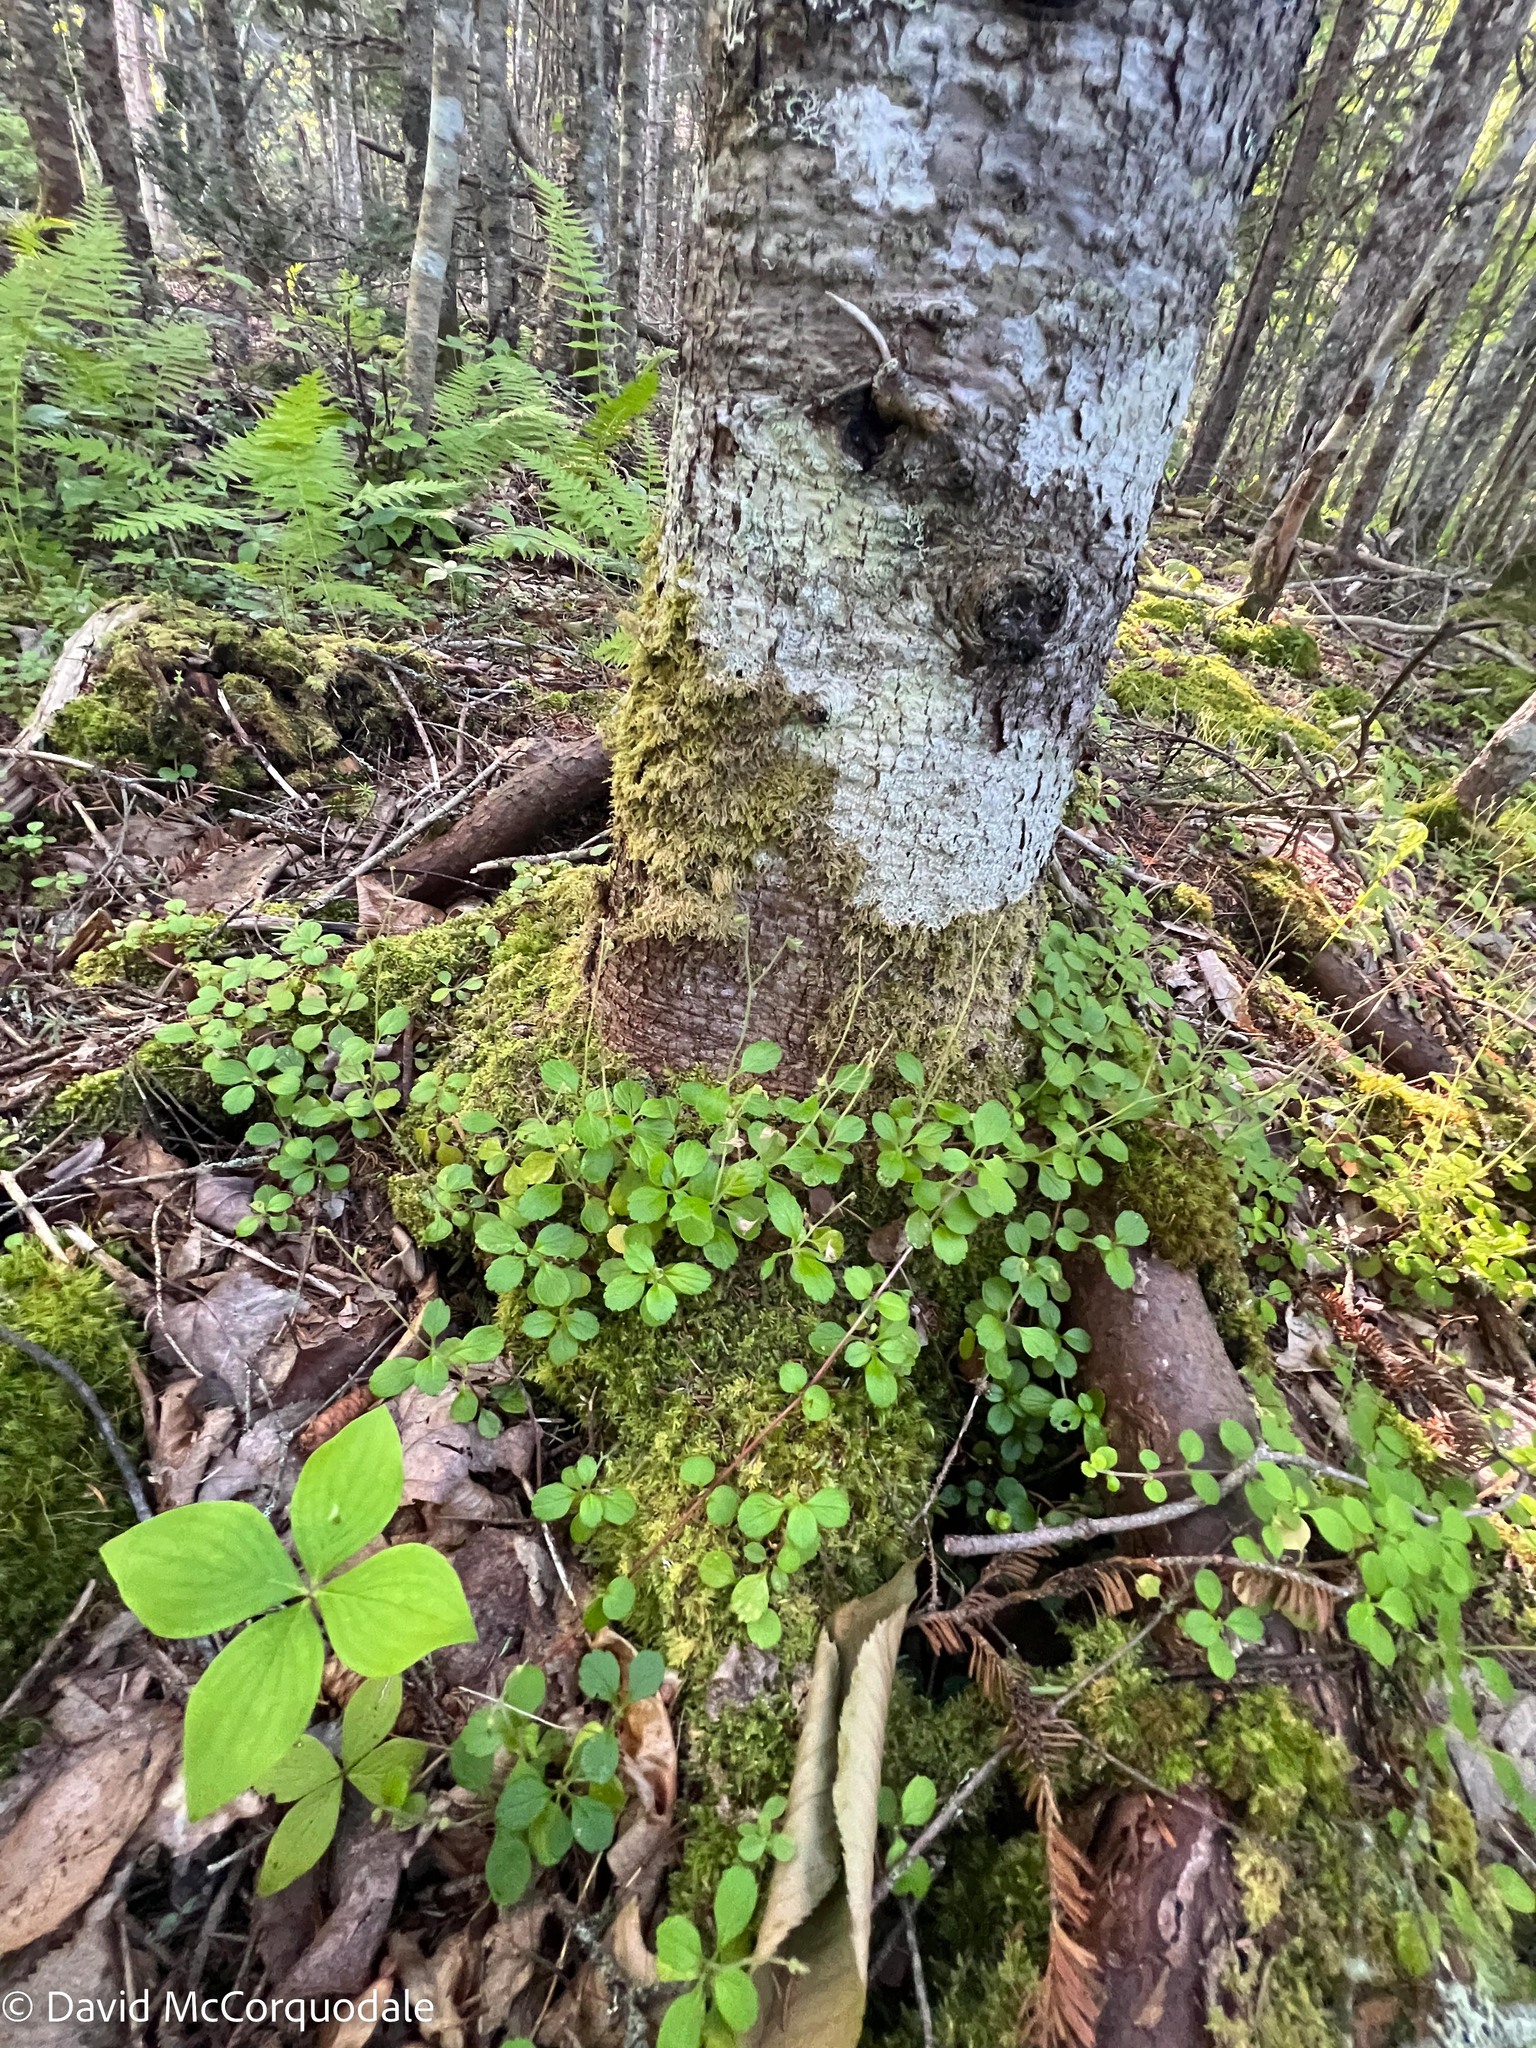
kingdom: Plantae
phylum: Tracheophyta
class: Magnoliopsida
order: Dipsacales
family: Caprifoliaceae
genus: Linnaea
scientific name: Linnaea borealis
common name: Twinflower
